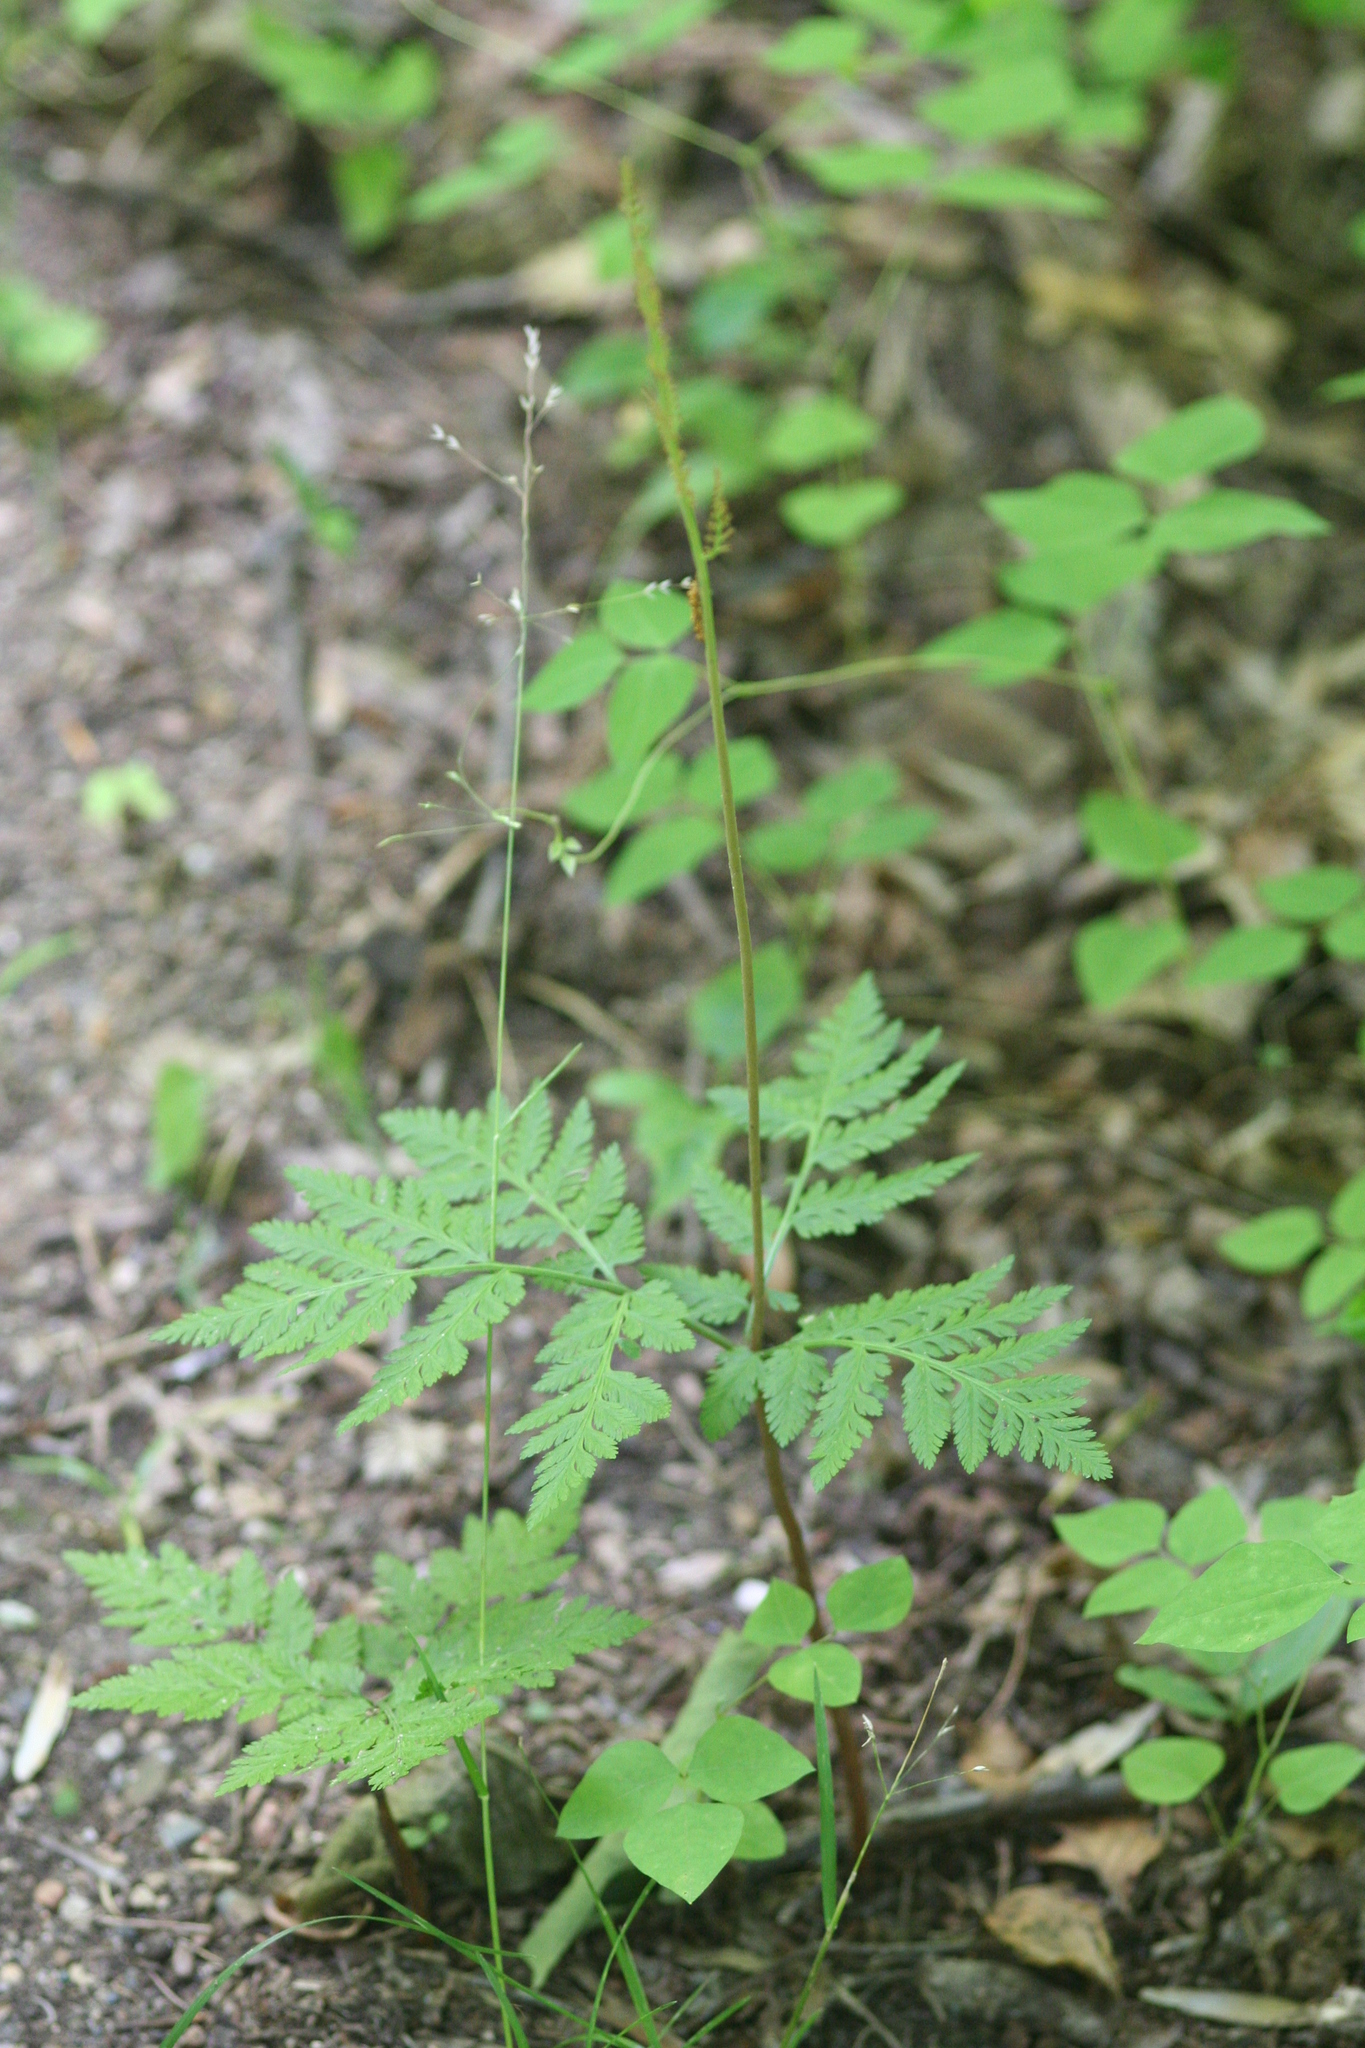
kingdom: Plantae
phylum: Tracheophyta
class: Polypodiopsida
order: Ophioglossales
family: Ophioglossaceae
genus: Botrypus
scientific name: Botrypus virginianus
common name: Common grapefern
